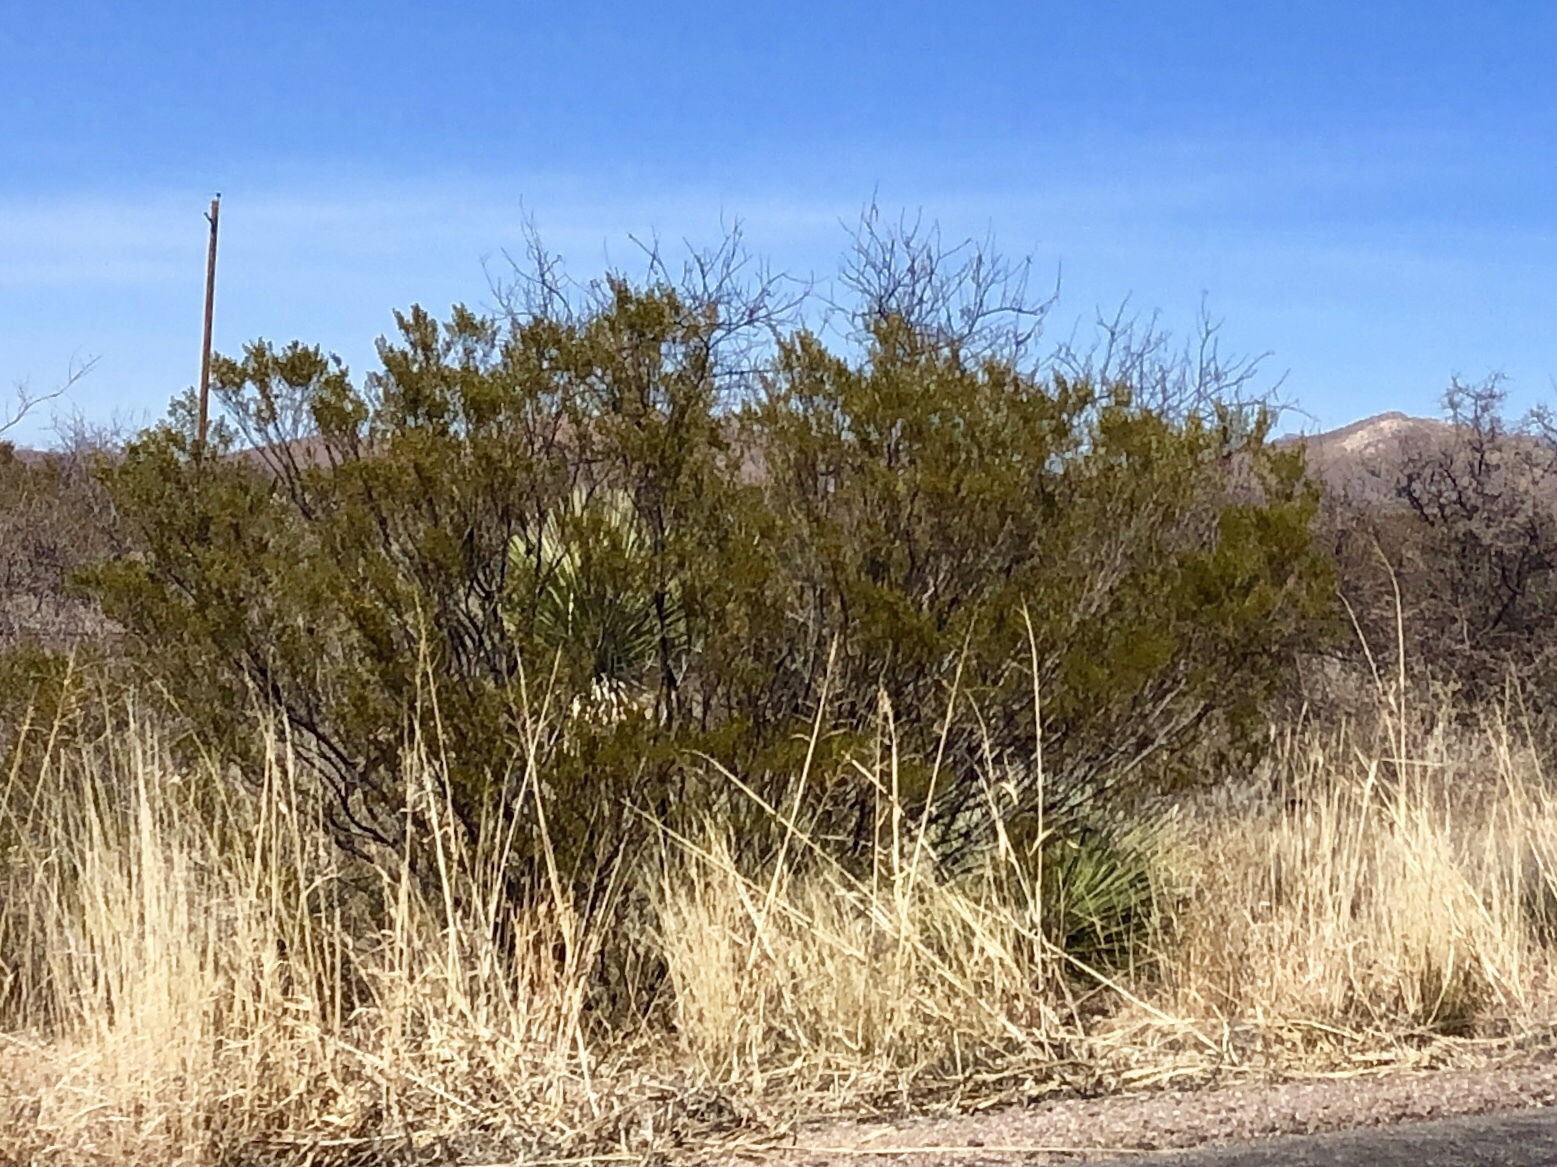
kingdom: Plantae
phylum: Tracheophyta
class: Magnoliopsida
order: Zygophyllales
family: Zygophyllaceae
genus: Larrea
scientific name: Larrea tridentata
